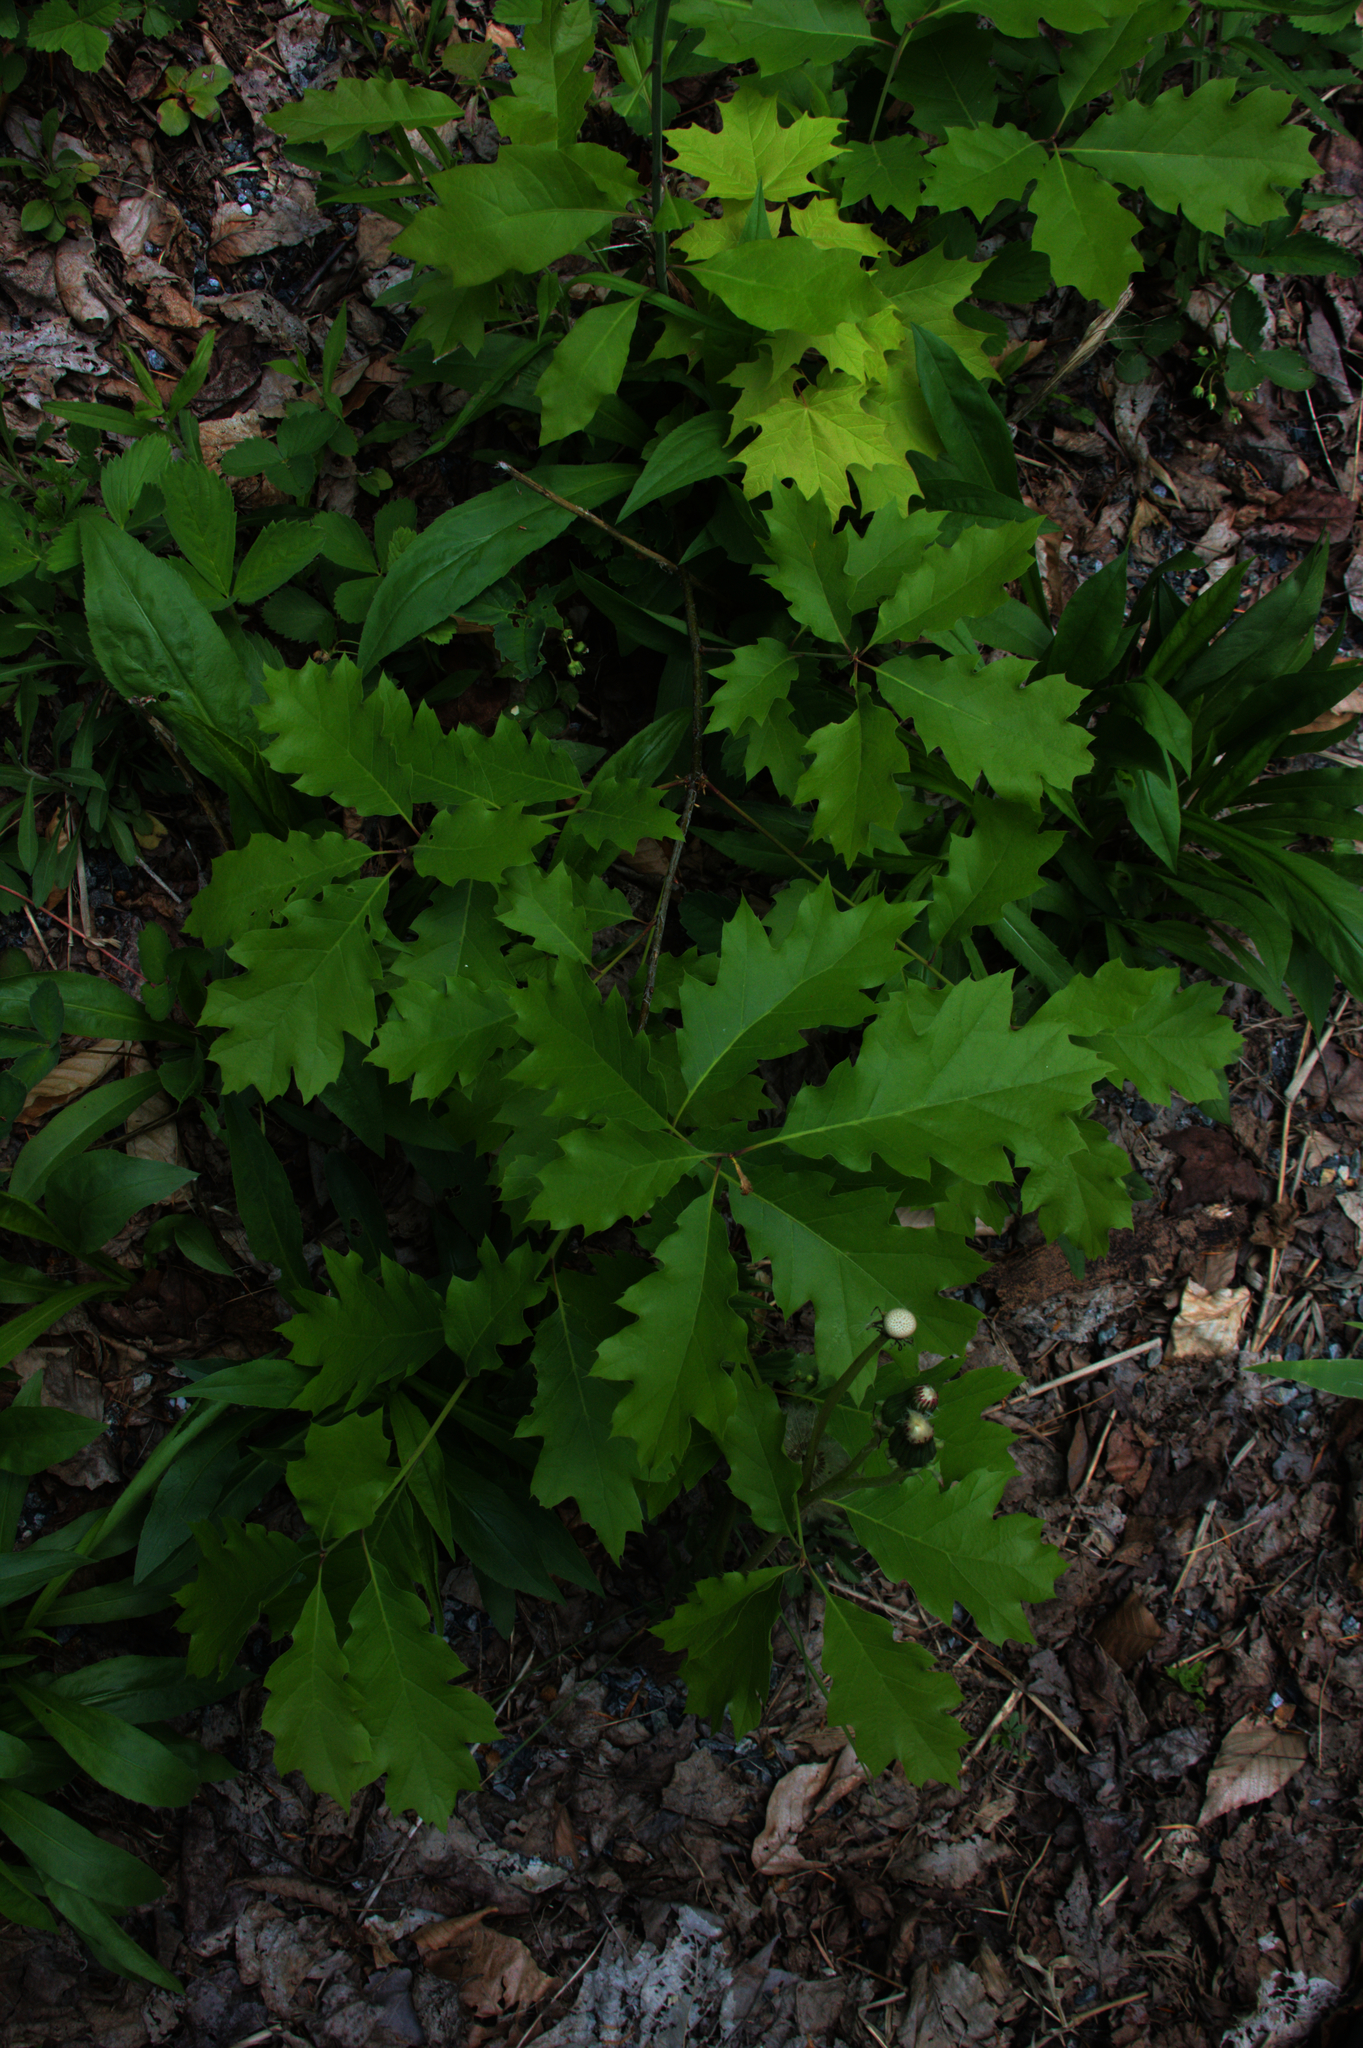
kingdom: Plantae
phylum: Tracheophyta
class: Magnoliopsida
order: Fagales
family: Fagaceae
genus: Quercus
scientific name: Quercus rubra
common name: Red oak
